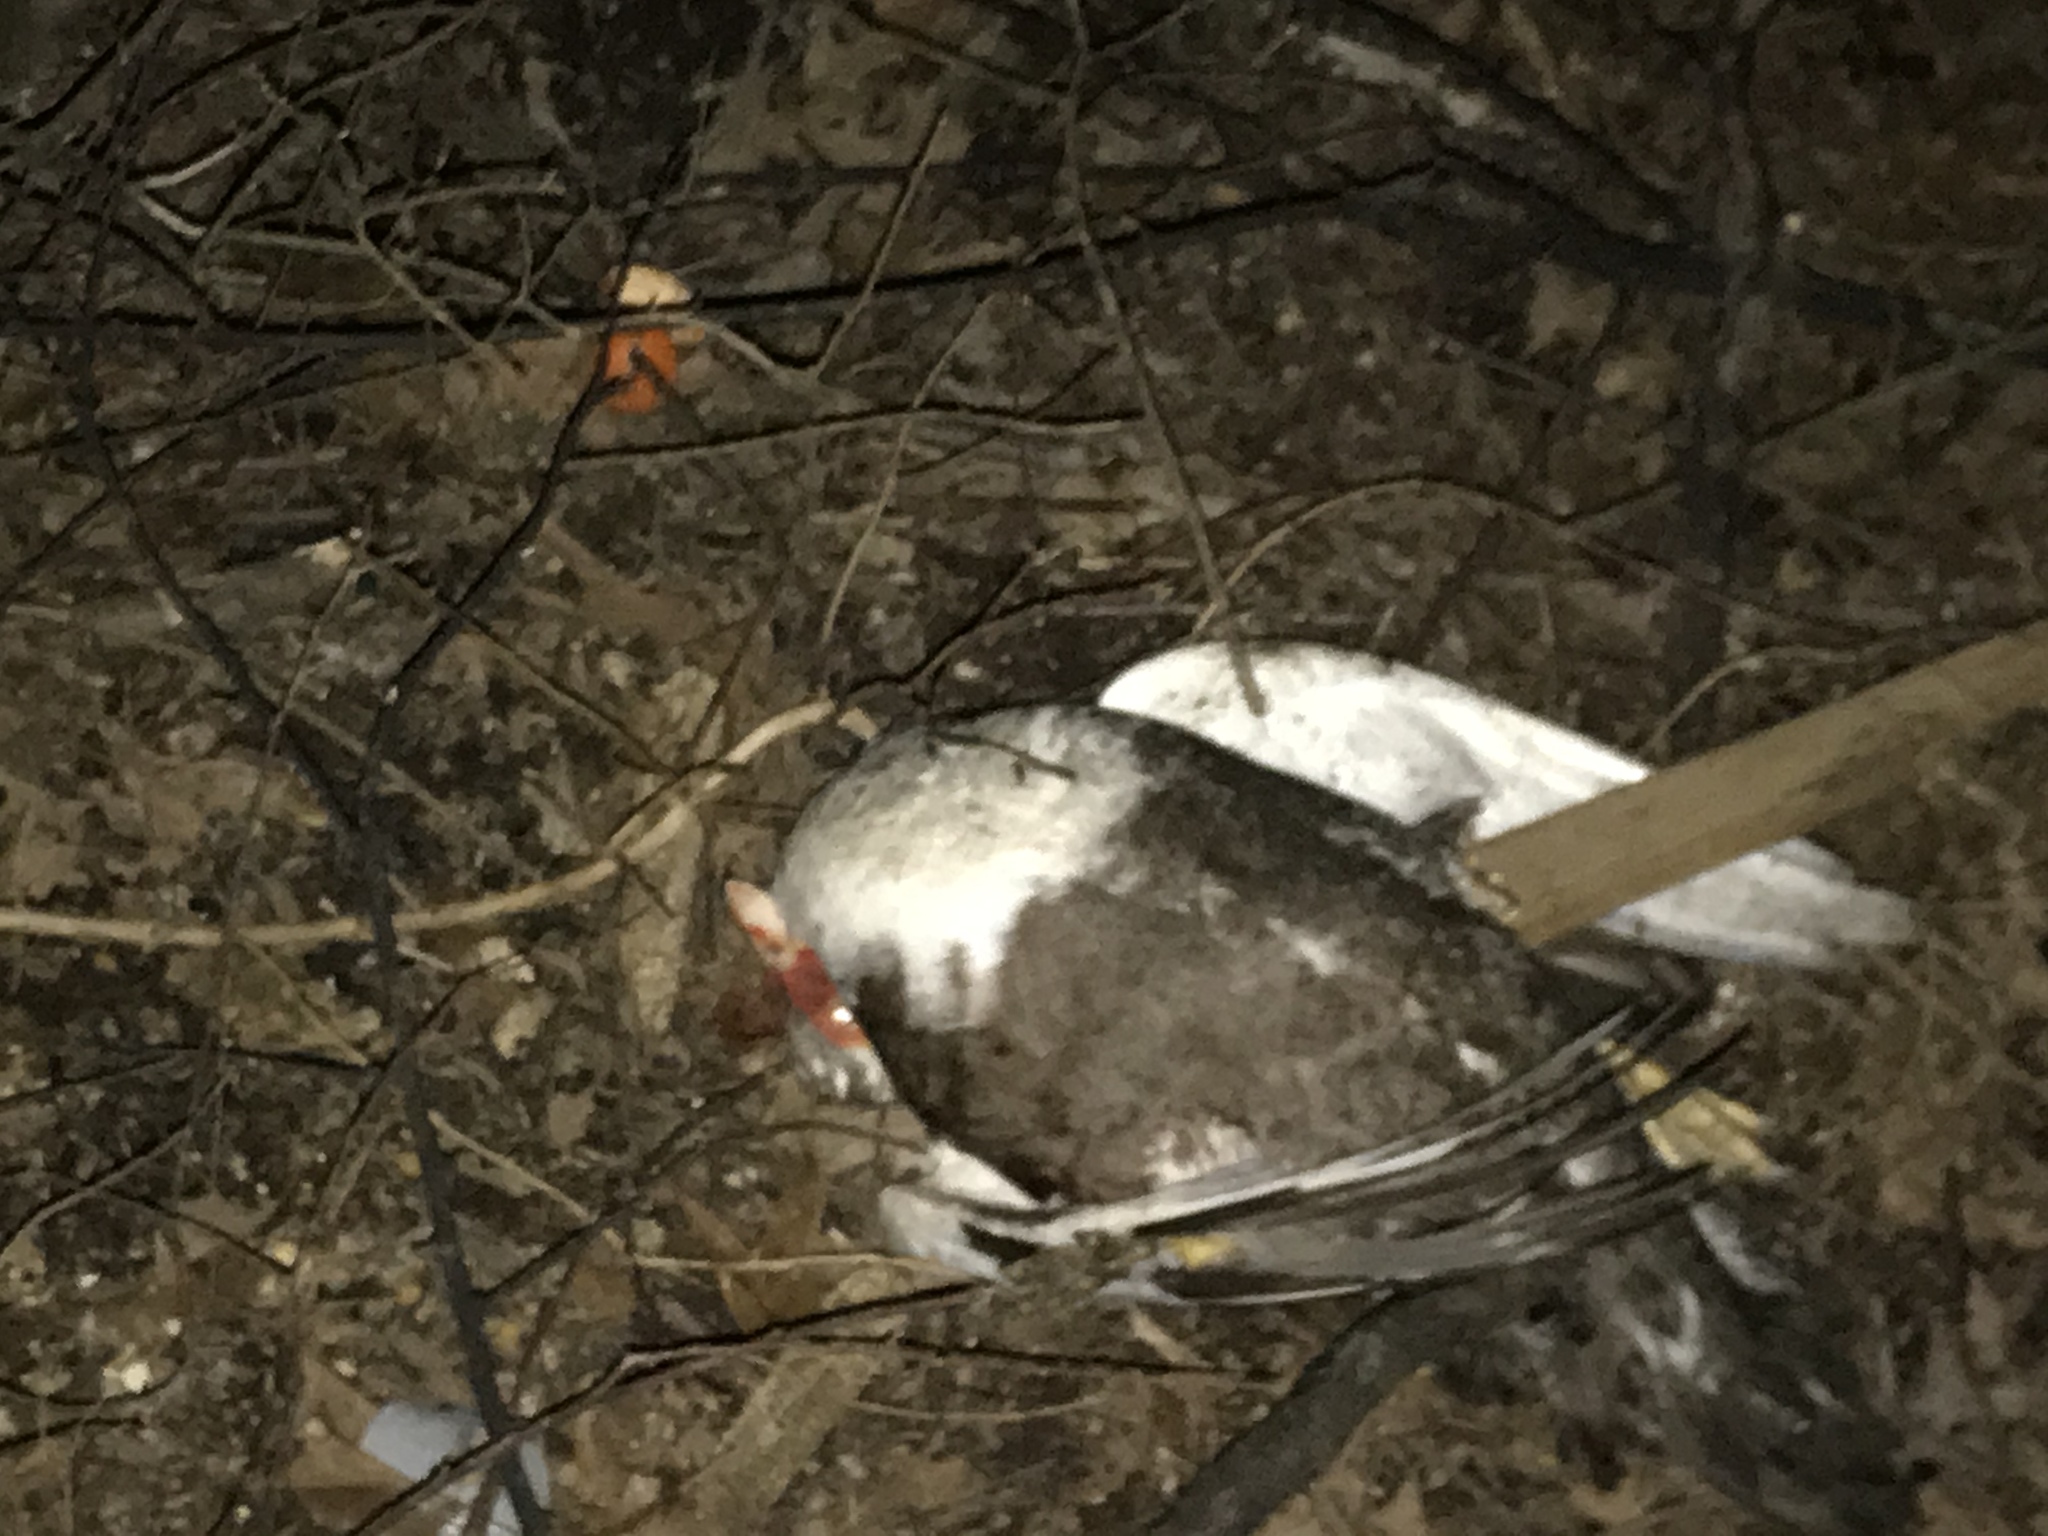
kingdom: Animalia
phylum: Chordata
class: Aves
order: Anseriformes
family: Anatidae
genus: Cairina
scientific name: Cairina moschata
